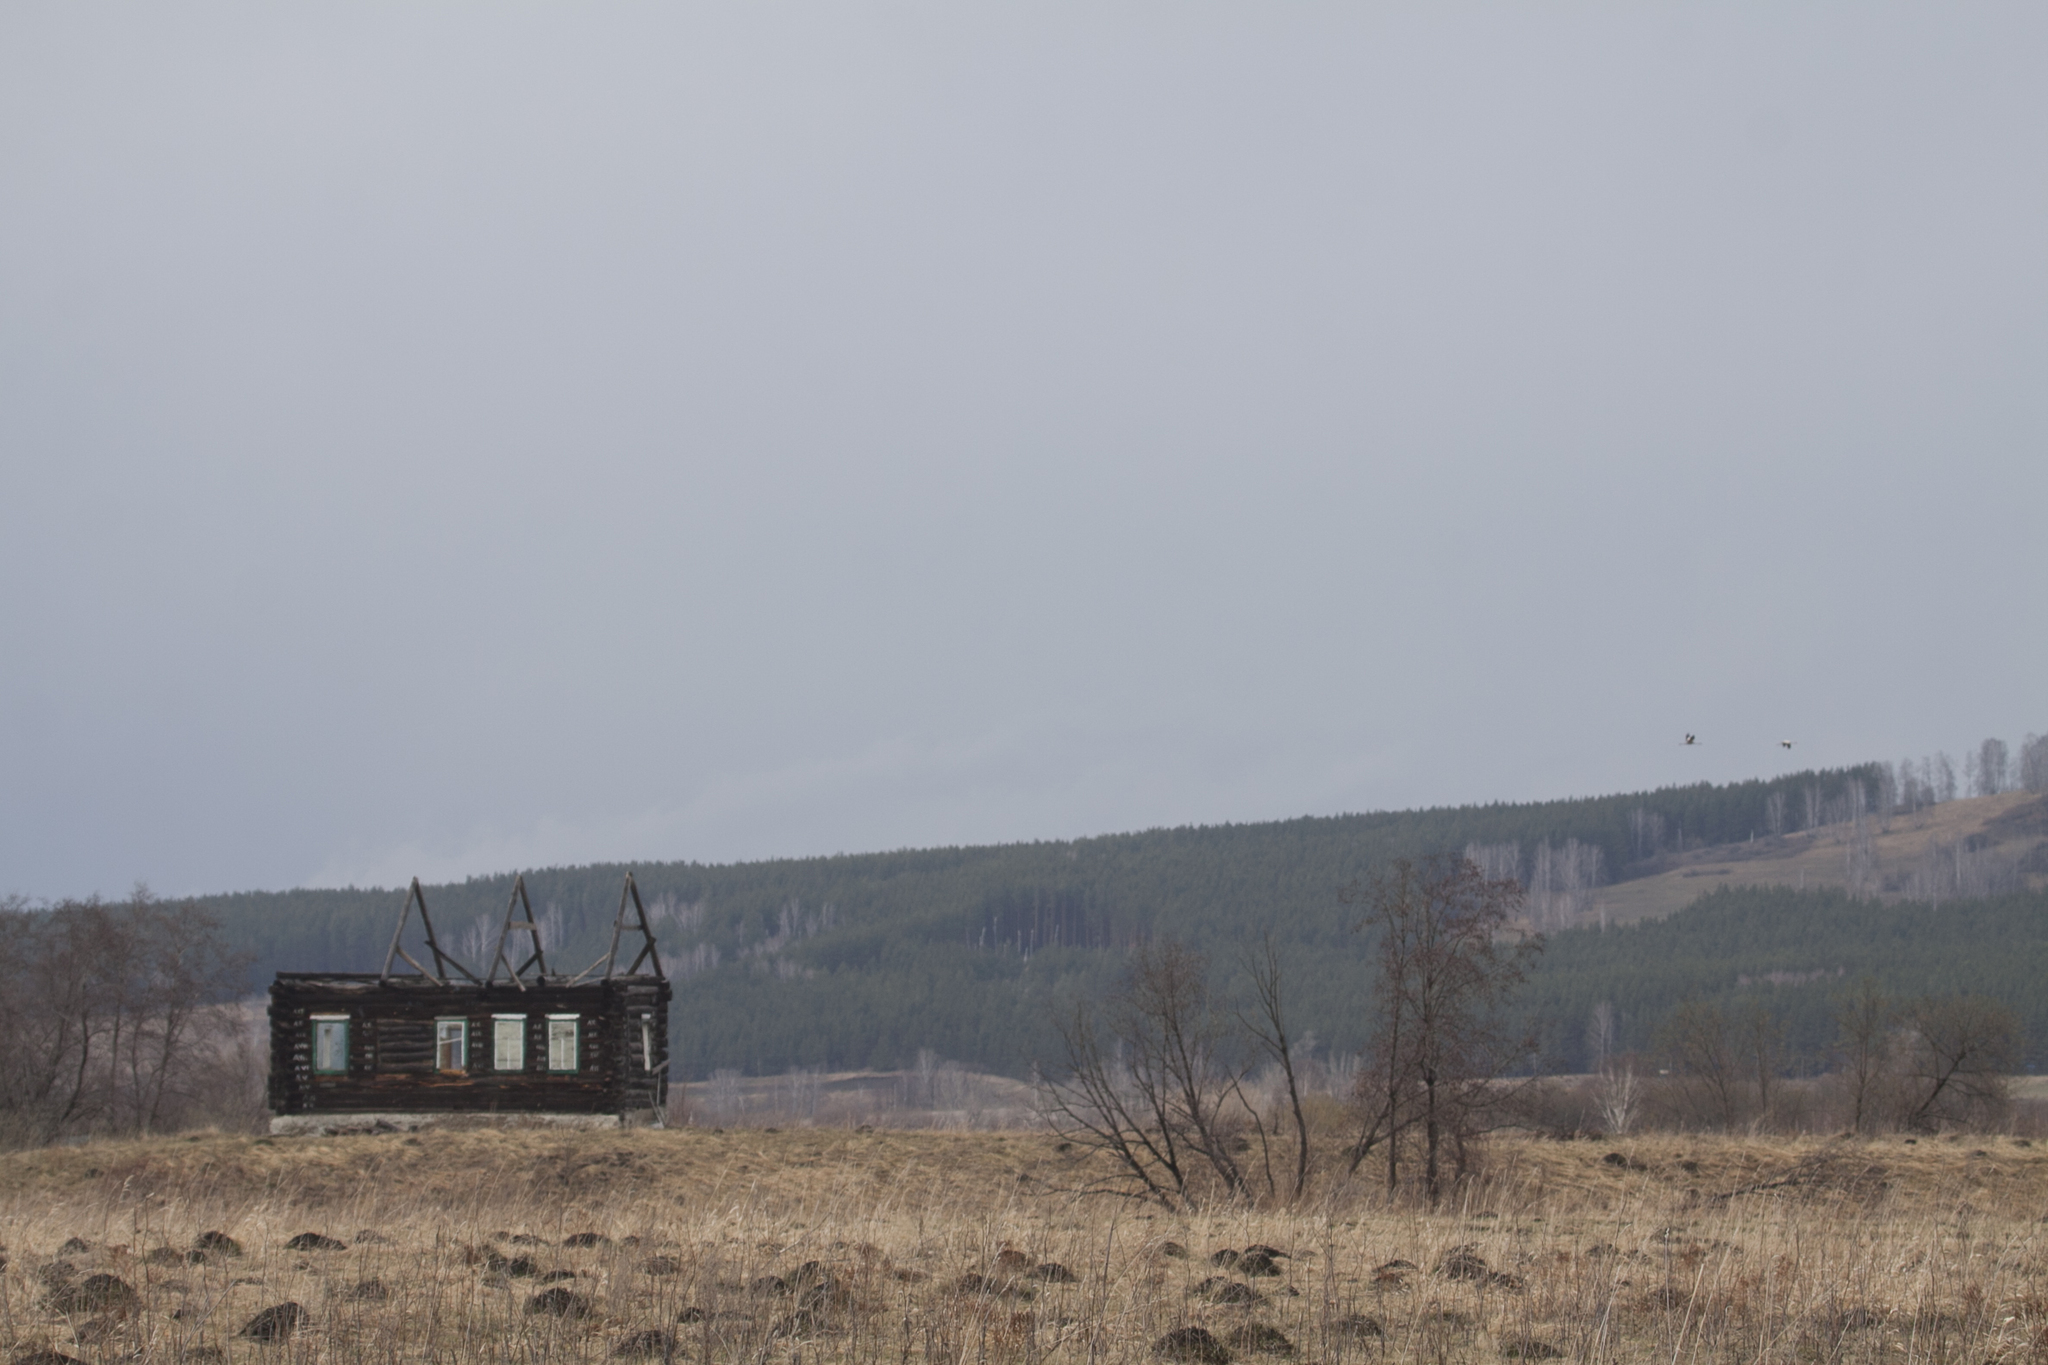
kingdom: Animalia
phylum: Chordata
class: Aves
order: Gruiformes
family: Gruidae
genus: Grus
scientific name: Grus grus
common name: Common crane
